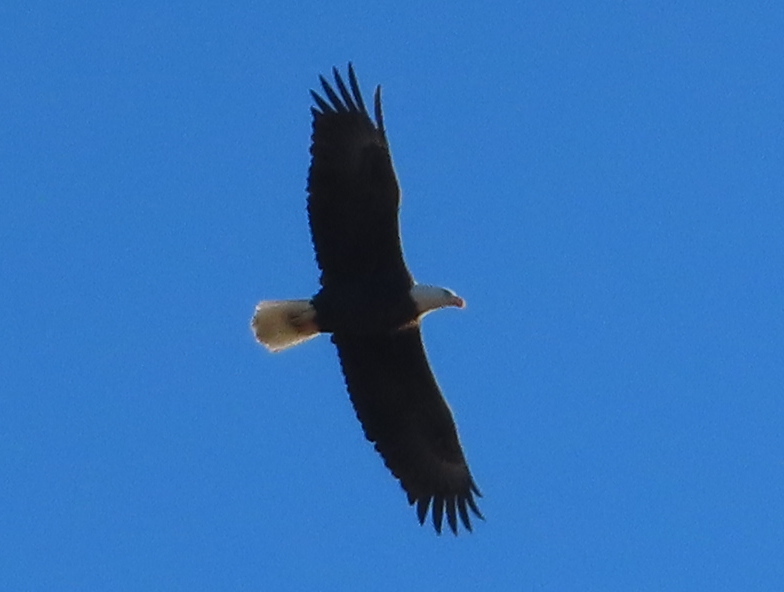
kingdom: Animalia
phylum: Chordata
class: Aves
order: Accipitriformes
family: Accipitridae
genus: Haliaeetus
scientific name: Haliaeetus leucocephalus
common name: Bald eagle
